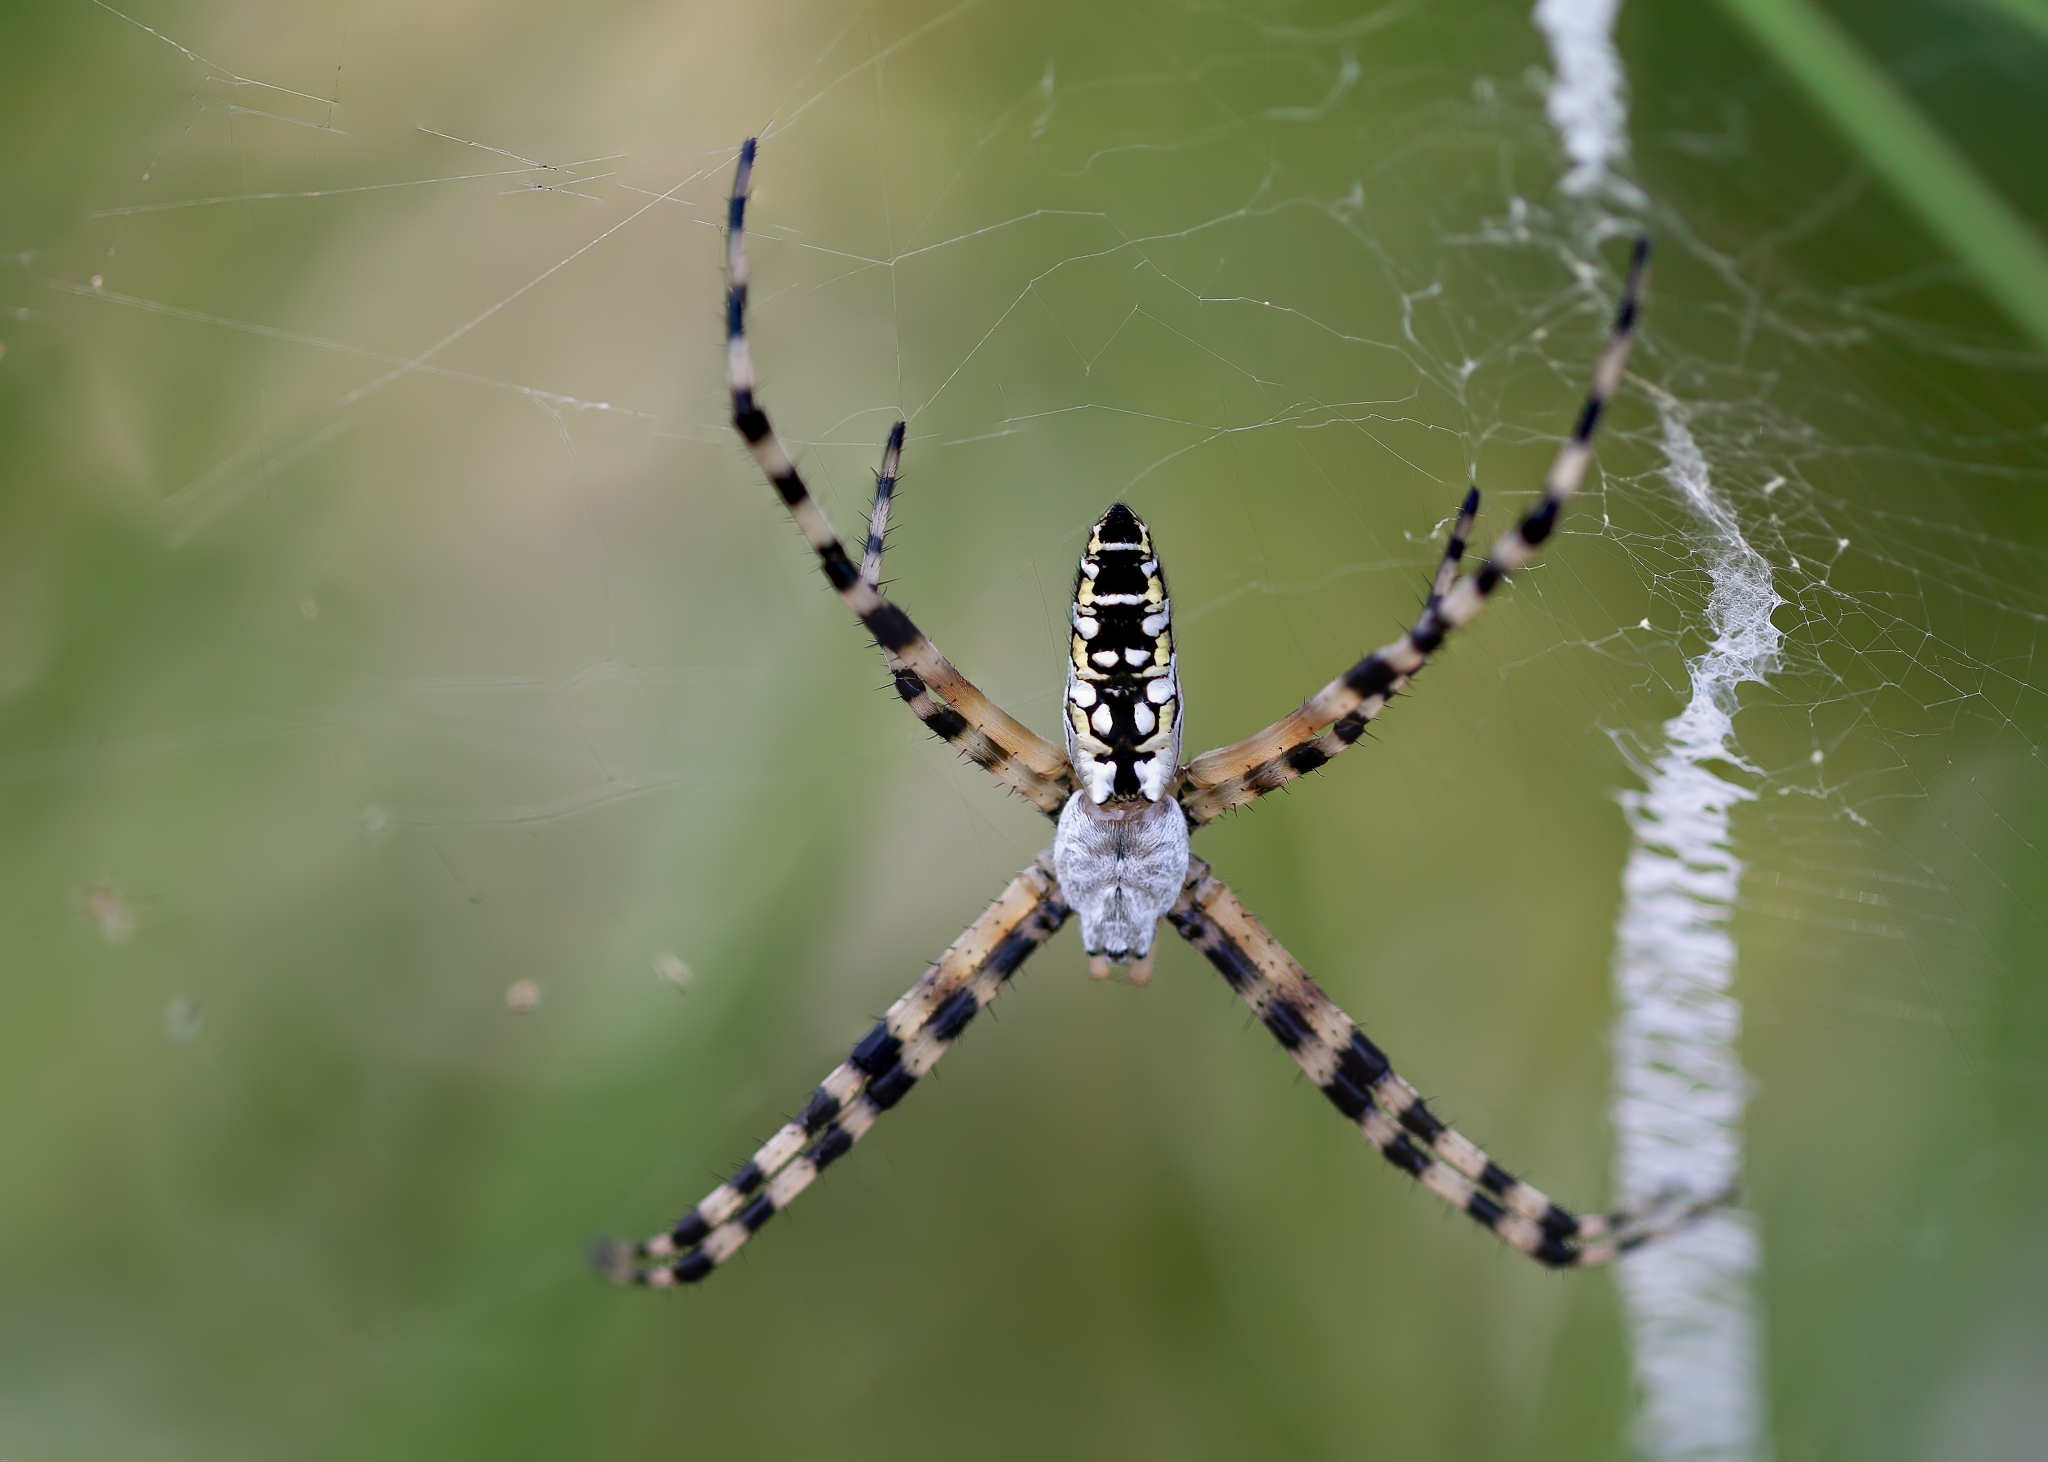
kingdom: Animalia
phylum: Arthropoda
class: Arachnida
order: Araneae
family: Araneidae
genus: Argiope
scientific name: Argiope aurantia
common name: Orb weavers
